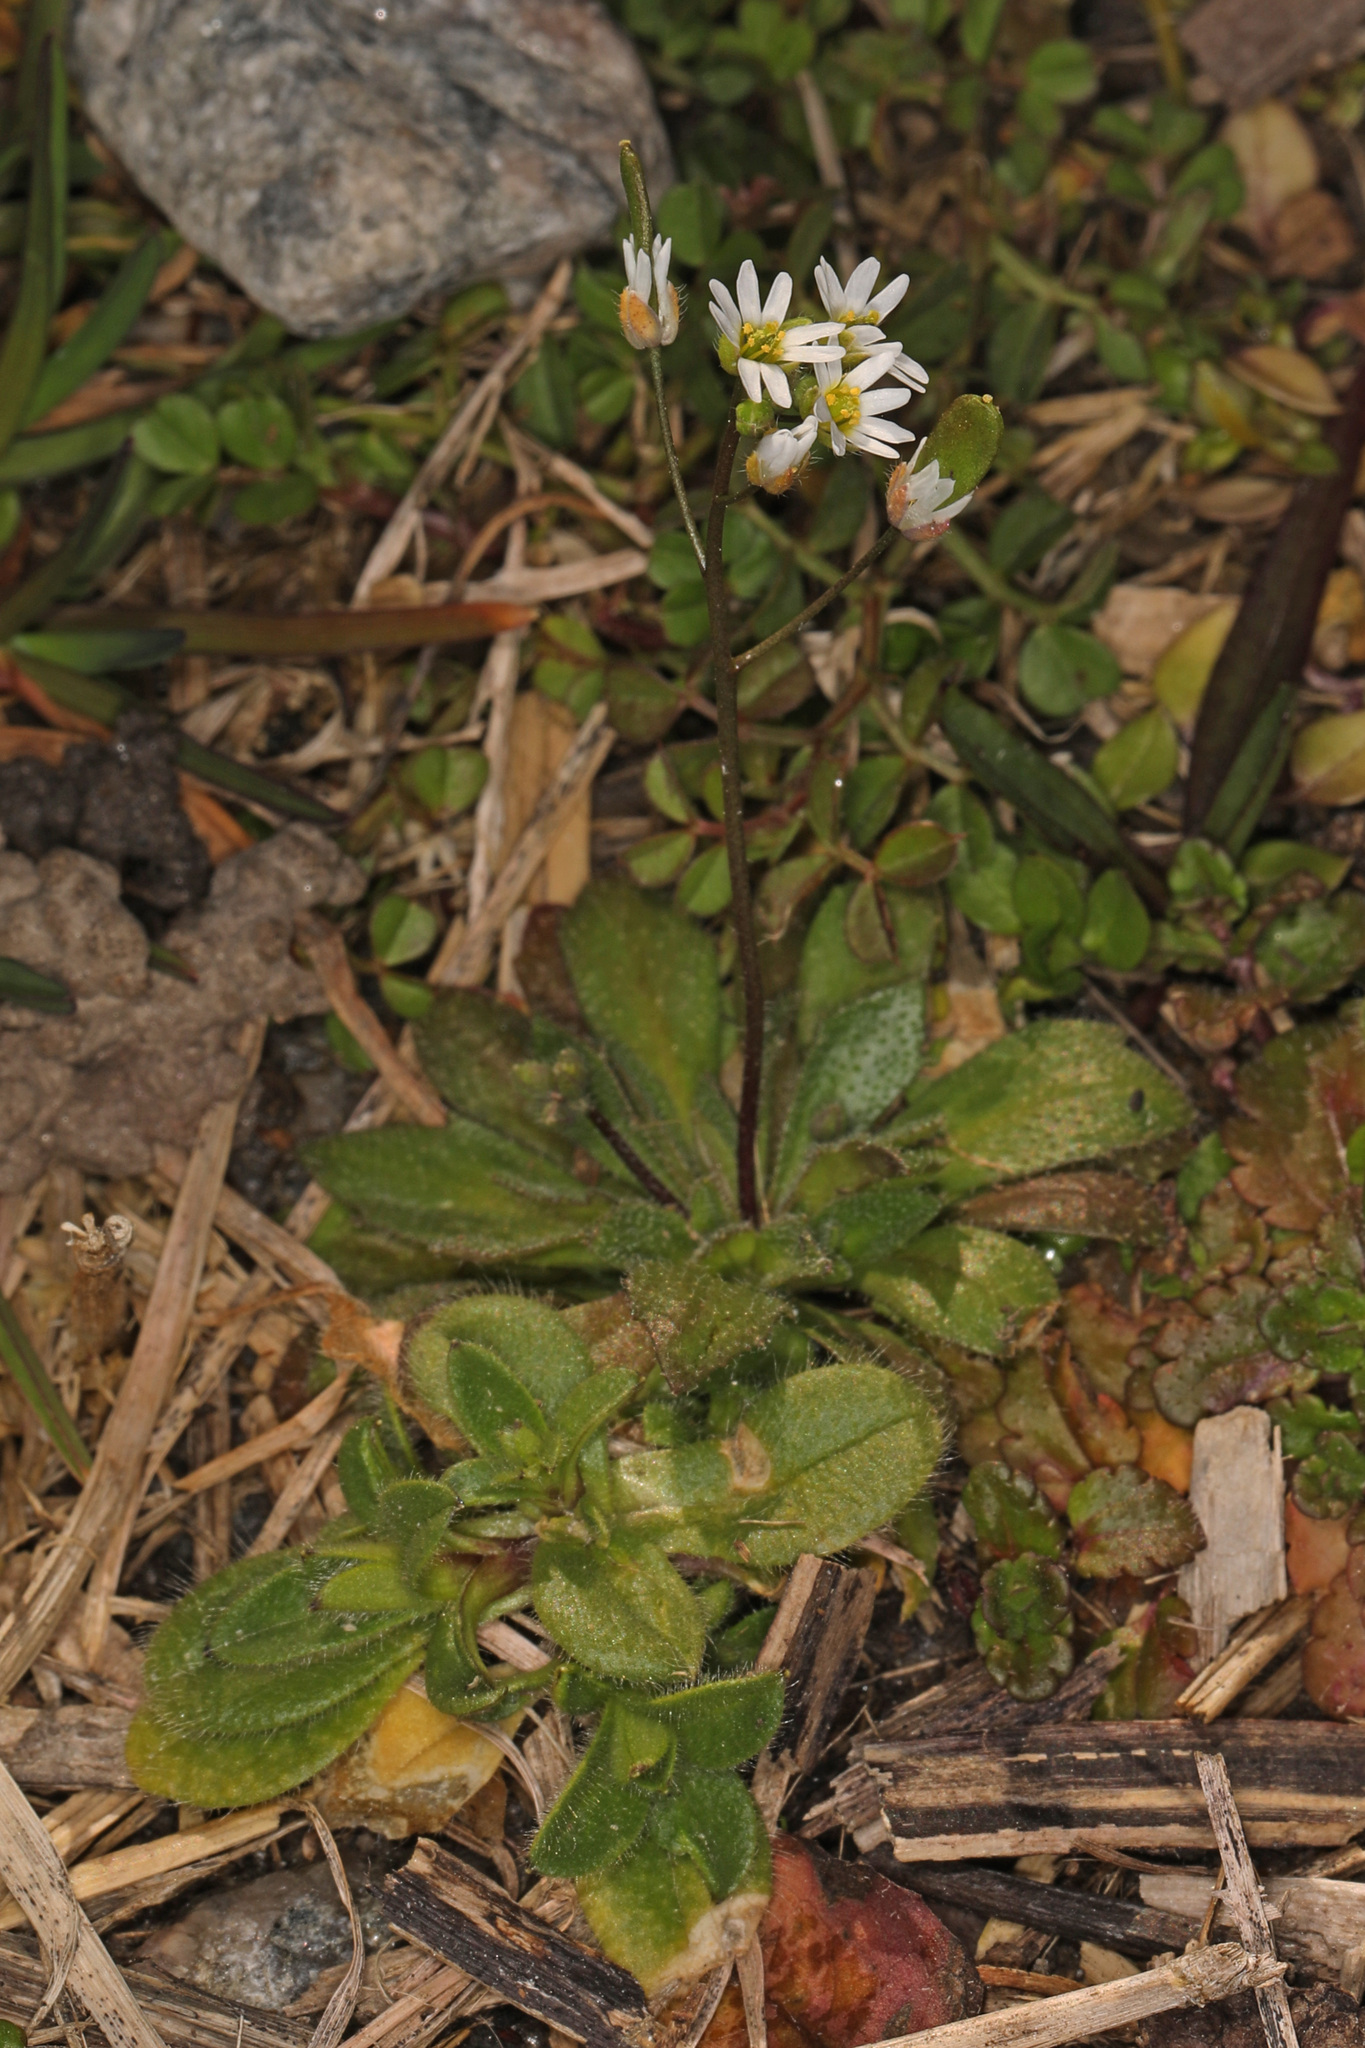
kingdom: Plantae
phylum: Tracheophyta
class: Magnoliopsida
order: Brassicales
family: Brassicaceae
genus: Draba
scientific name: Draba verna
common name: Spring draba
